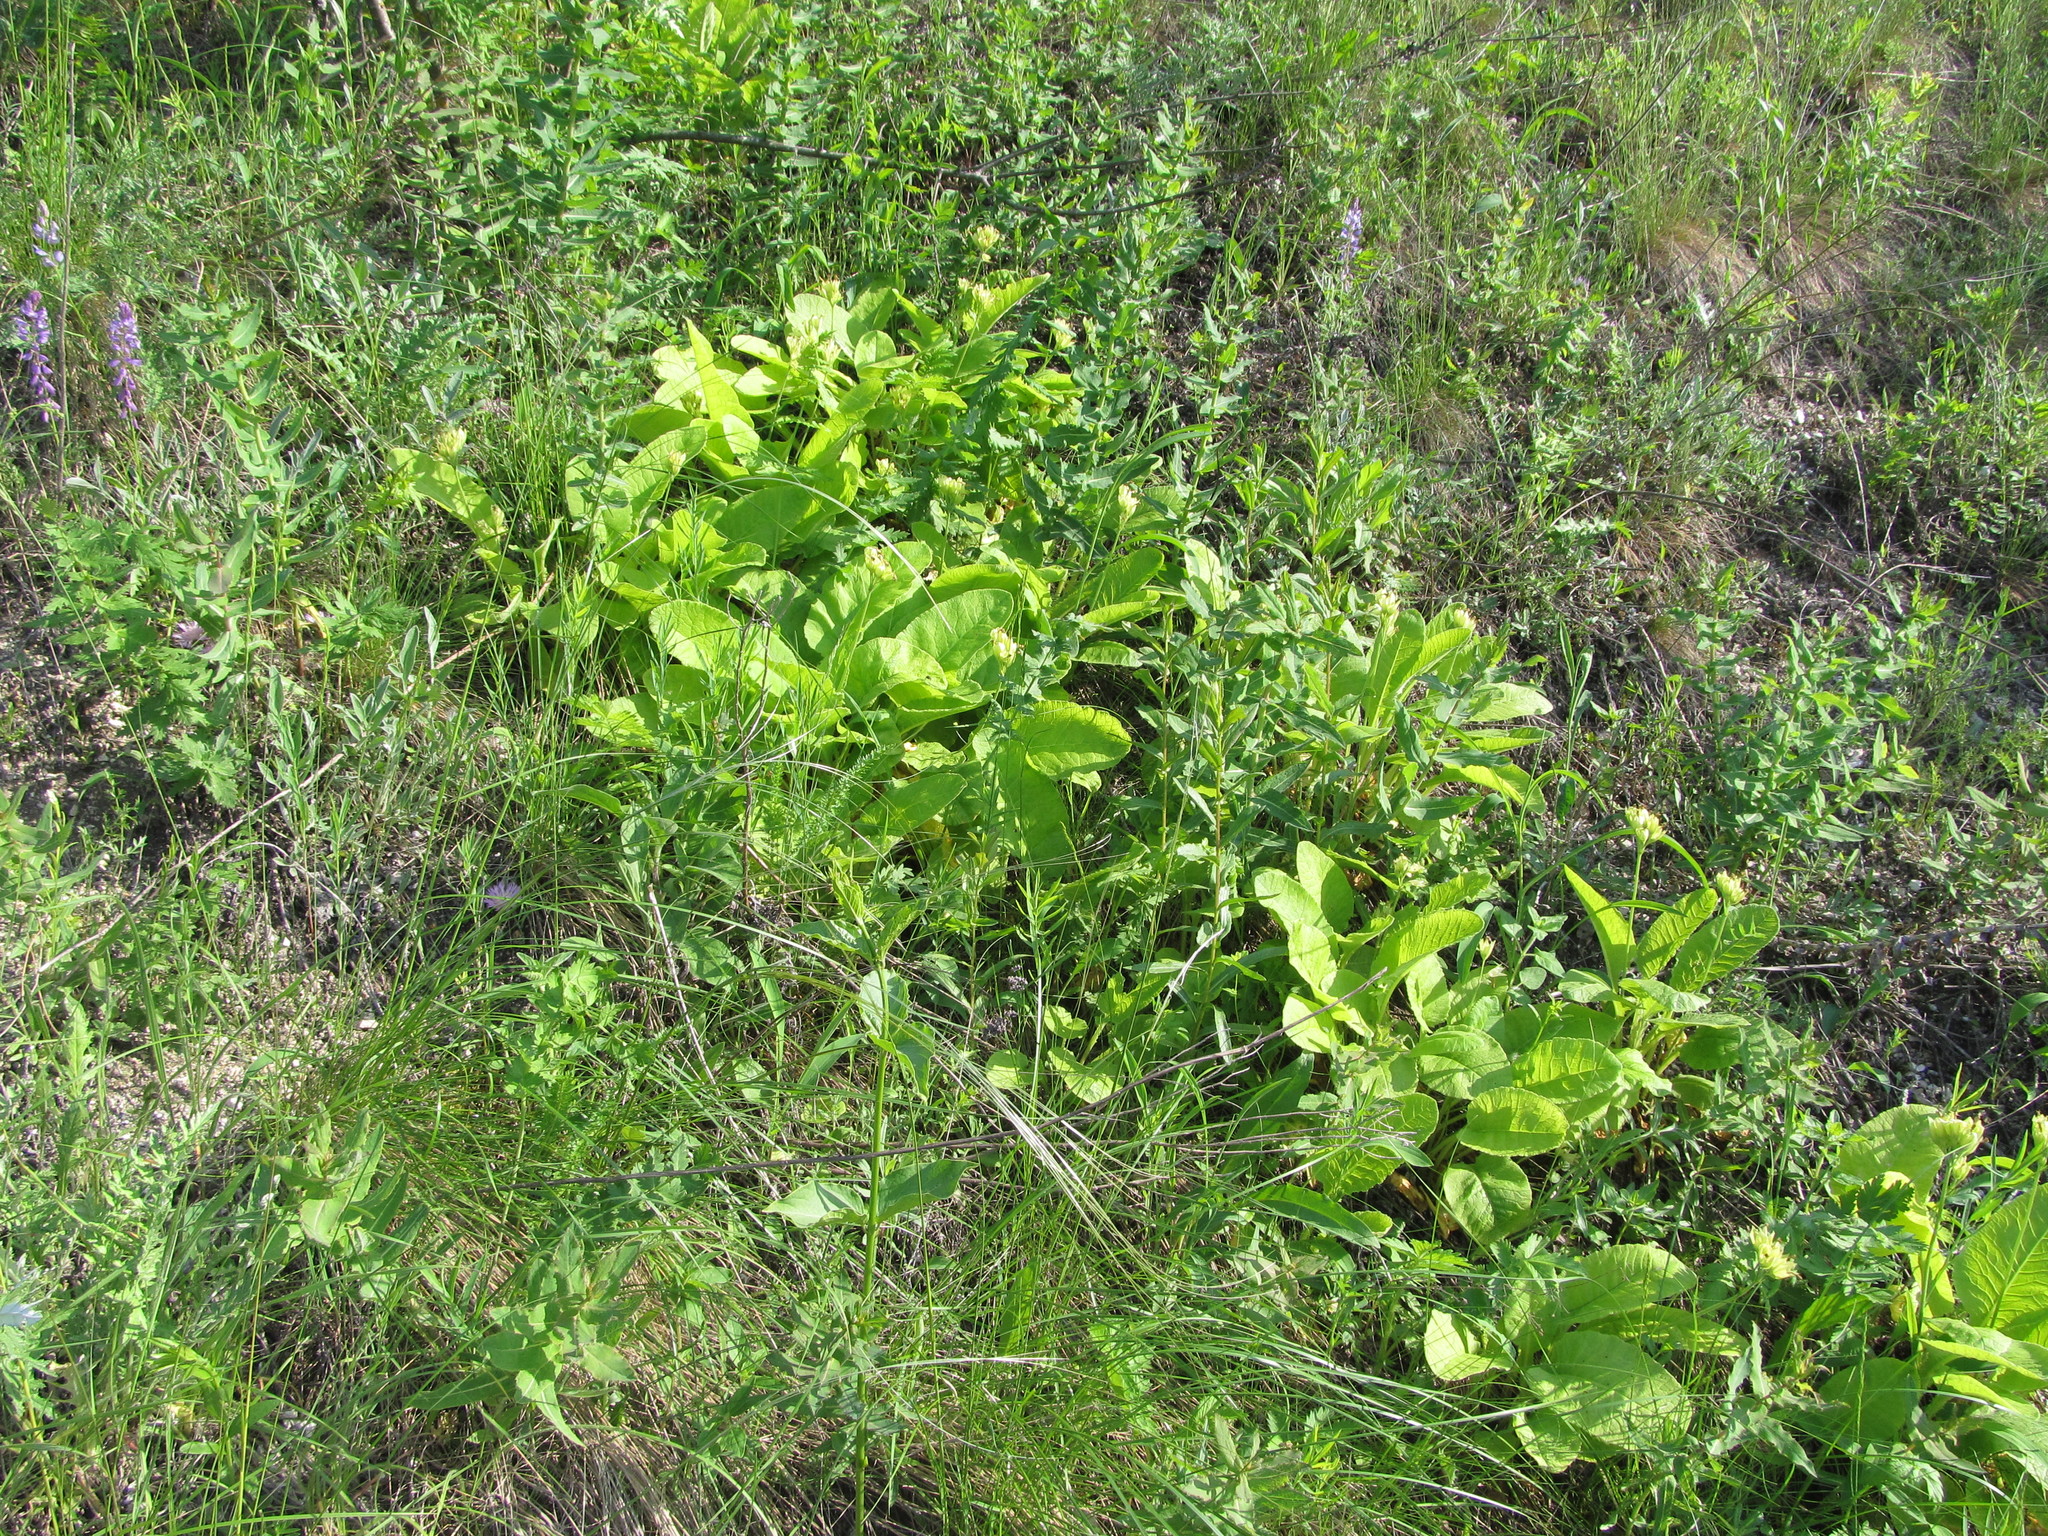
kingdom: Plantae
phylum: Tracheophyta
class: Magnoliopsida
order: Ericales
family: Primulaceae
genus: Primula
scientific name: Primula veris
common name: Cowslip
